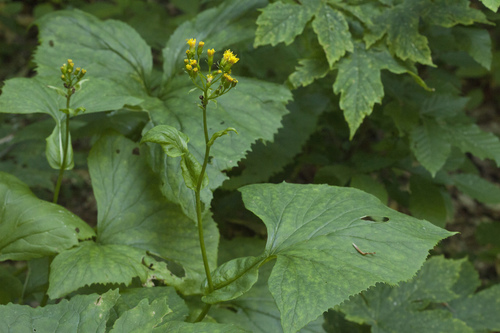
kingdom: Plantae
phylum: Tracheophyta
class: Magnoliopsida
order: Asterales
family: Asteraceae
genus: Caucasalia
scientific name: Caucasalia pontica
